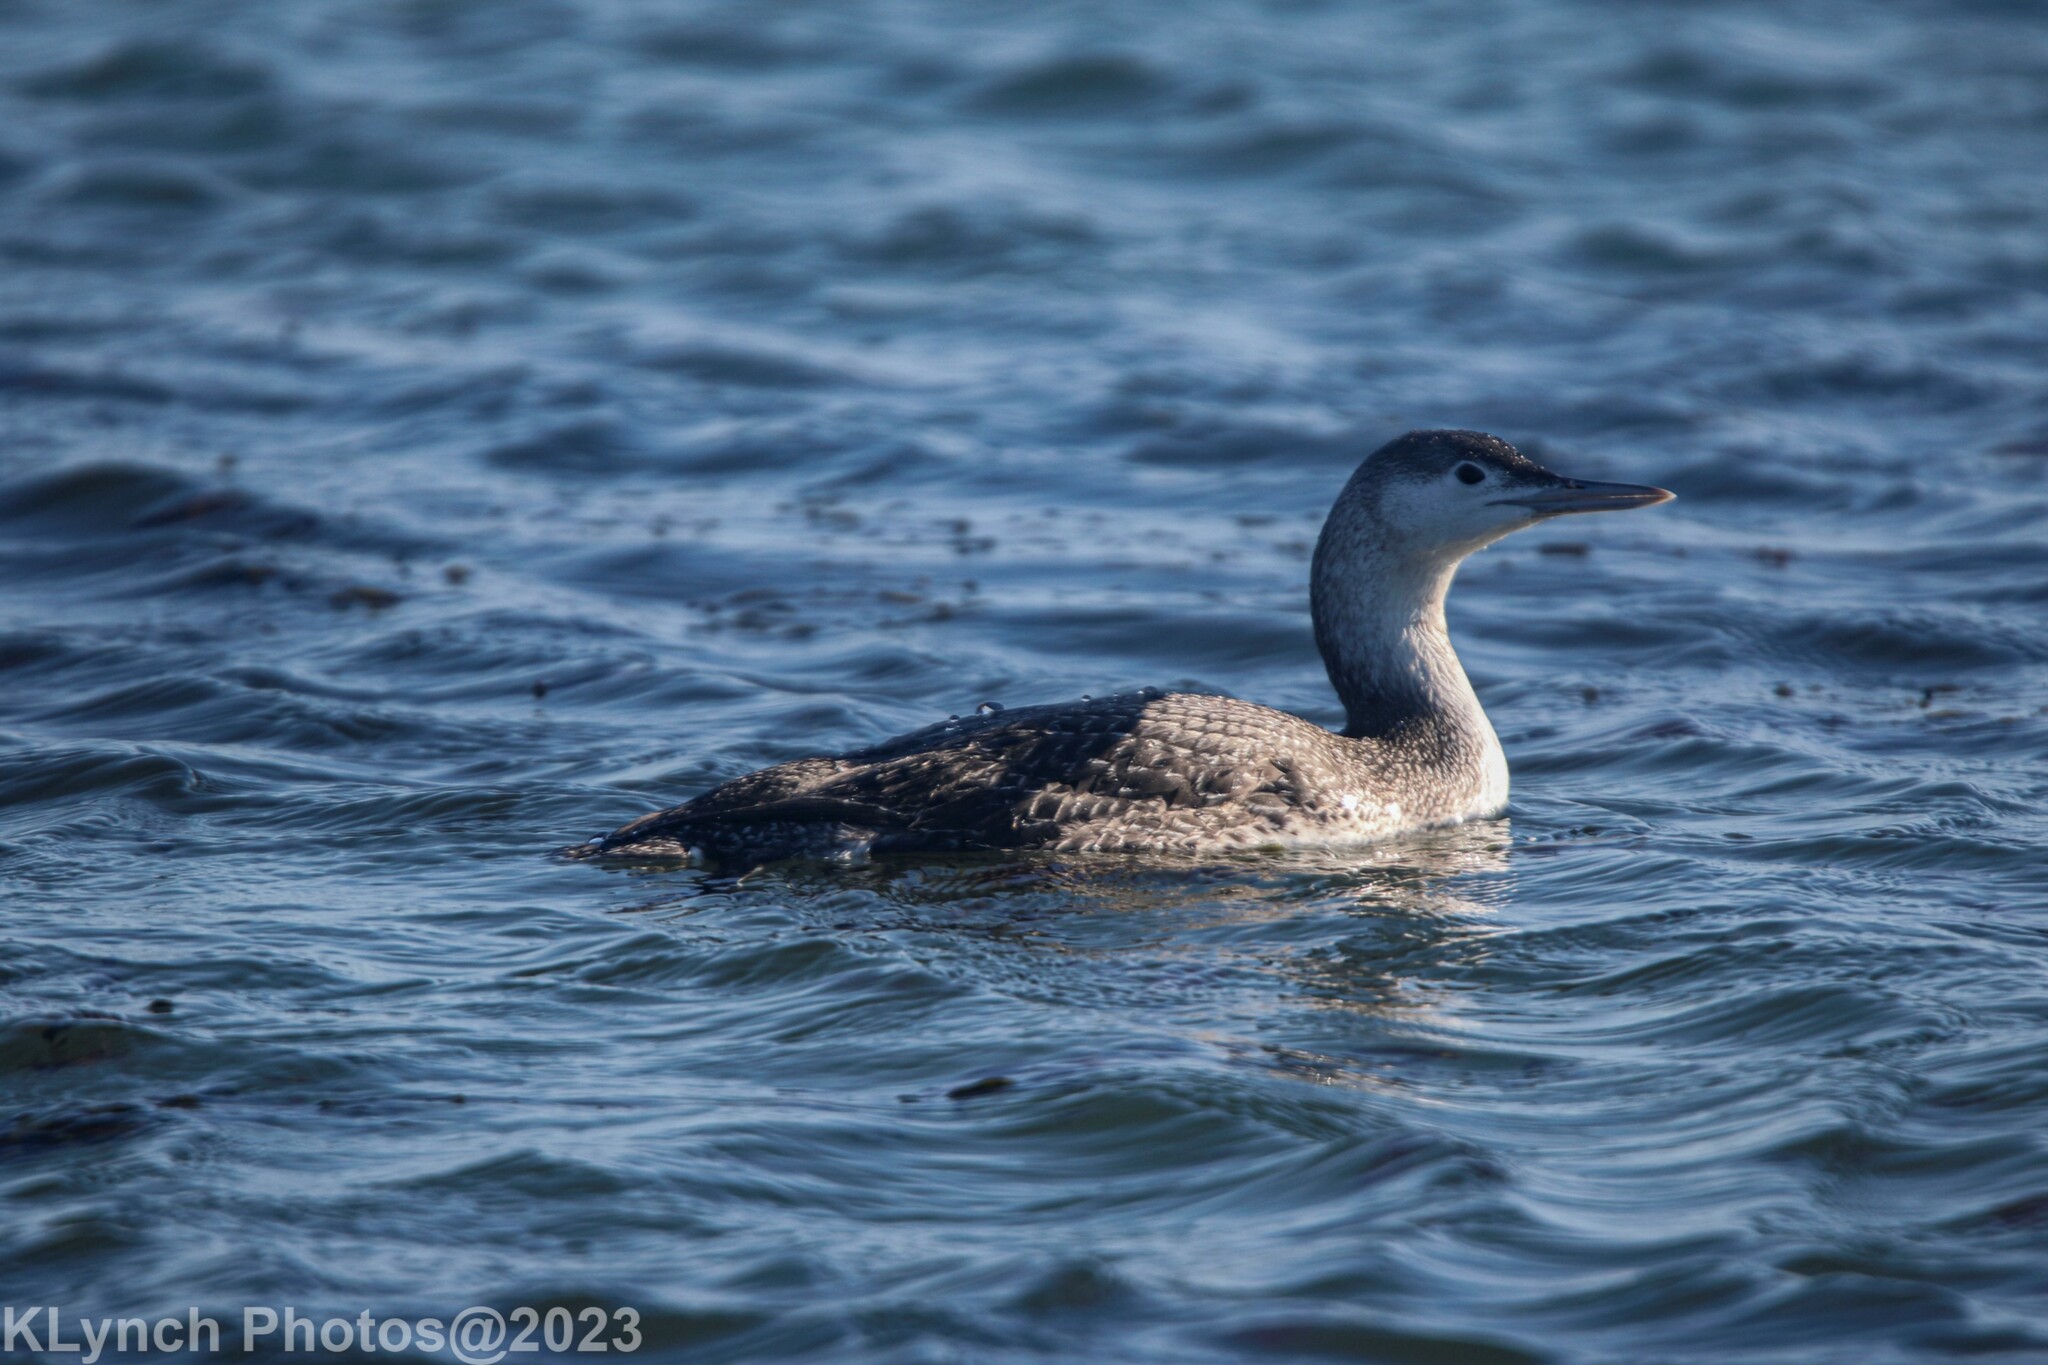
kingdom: Animalia
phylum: Chordata
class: Aves
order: Gaviiformes
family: Gaviidae
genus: Gavia
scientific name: Gavia stellata
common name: Red-throated loon
